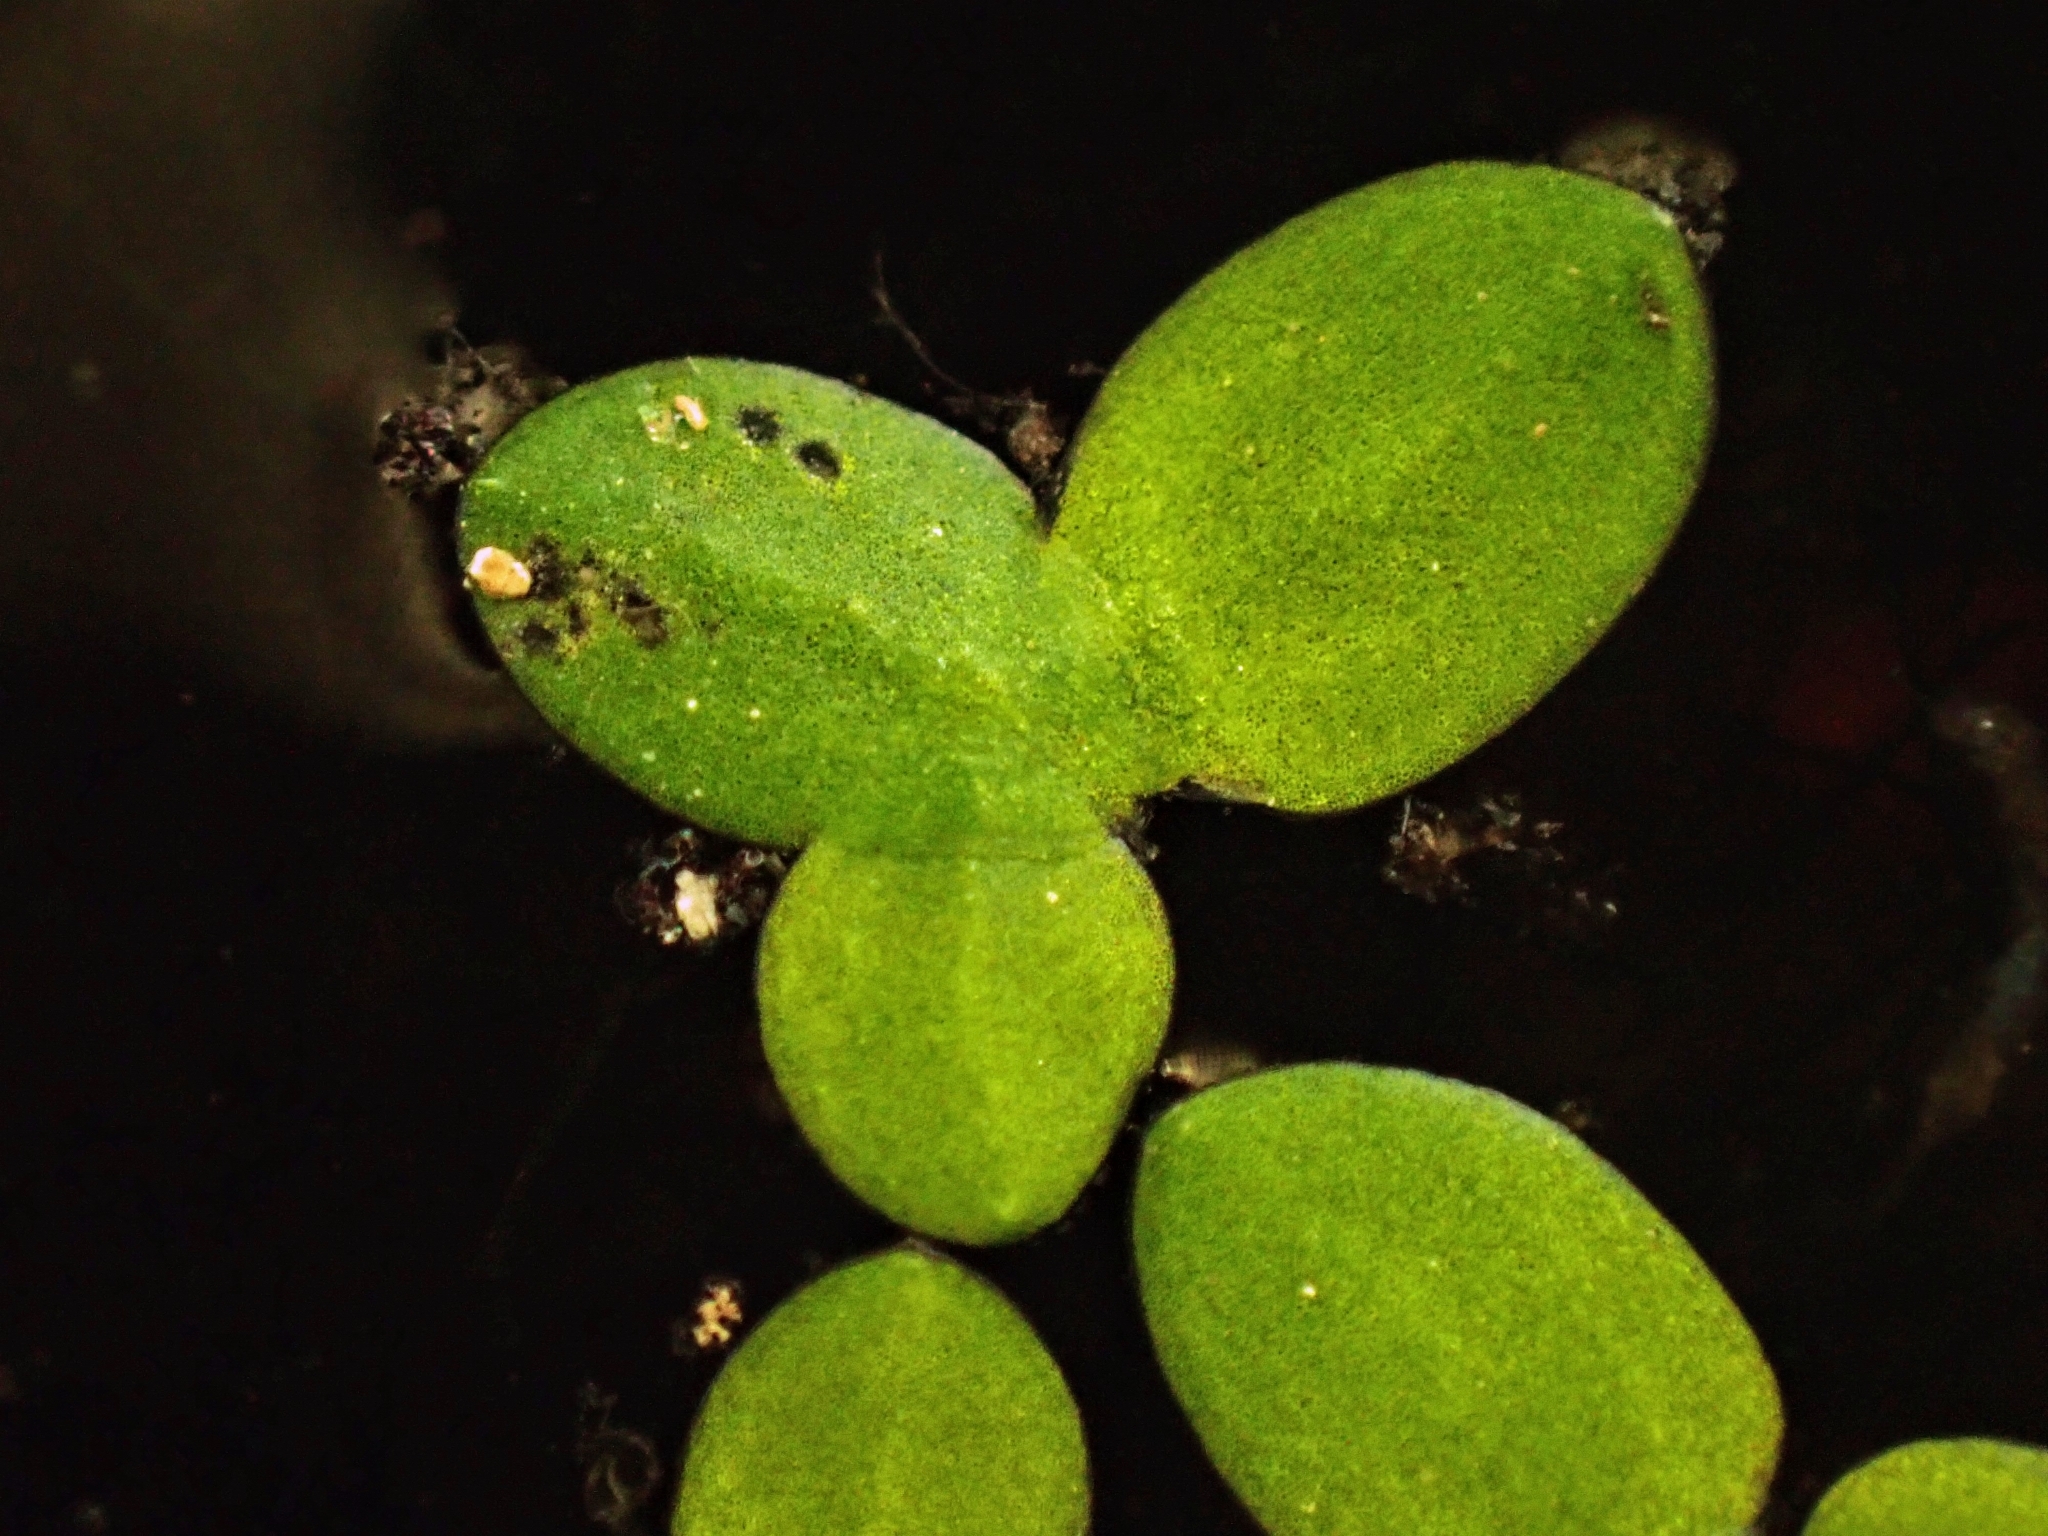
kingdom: Plantae
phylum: Tracheophyta
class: Liliopsida
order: Alismatales
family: Araceae
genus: Lemna
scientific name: Lemna aequinoctialis
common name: Duckweed
